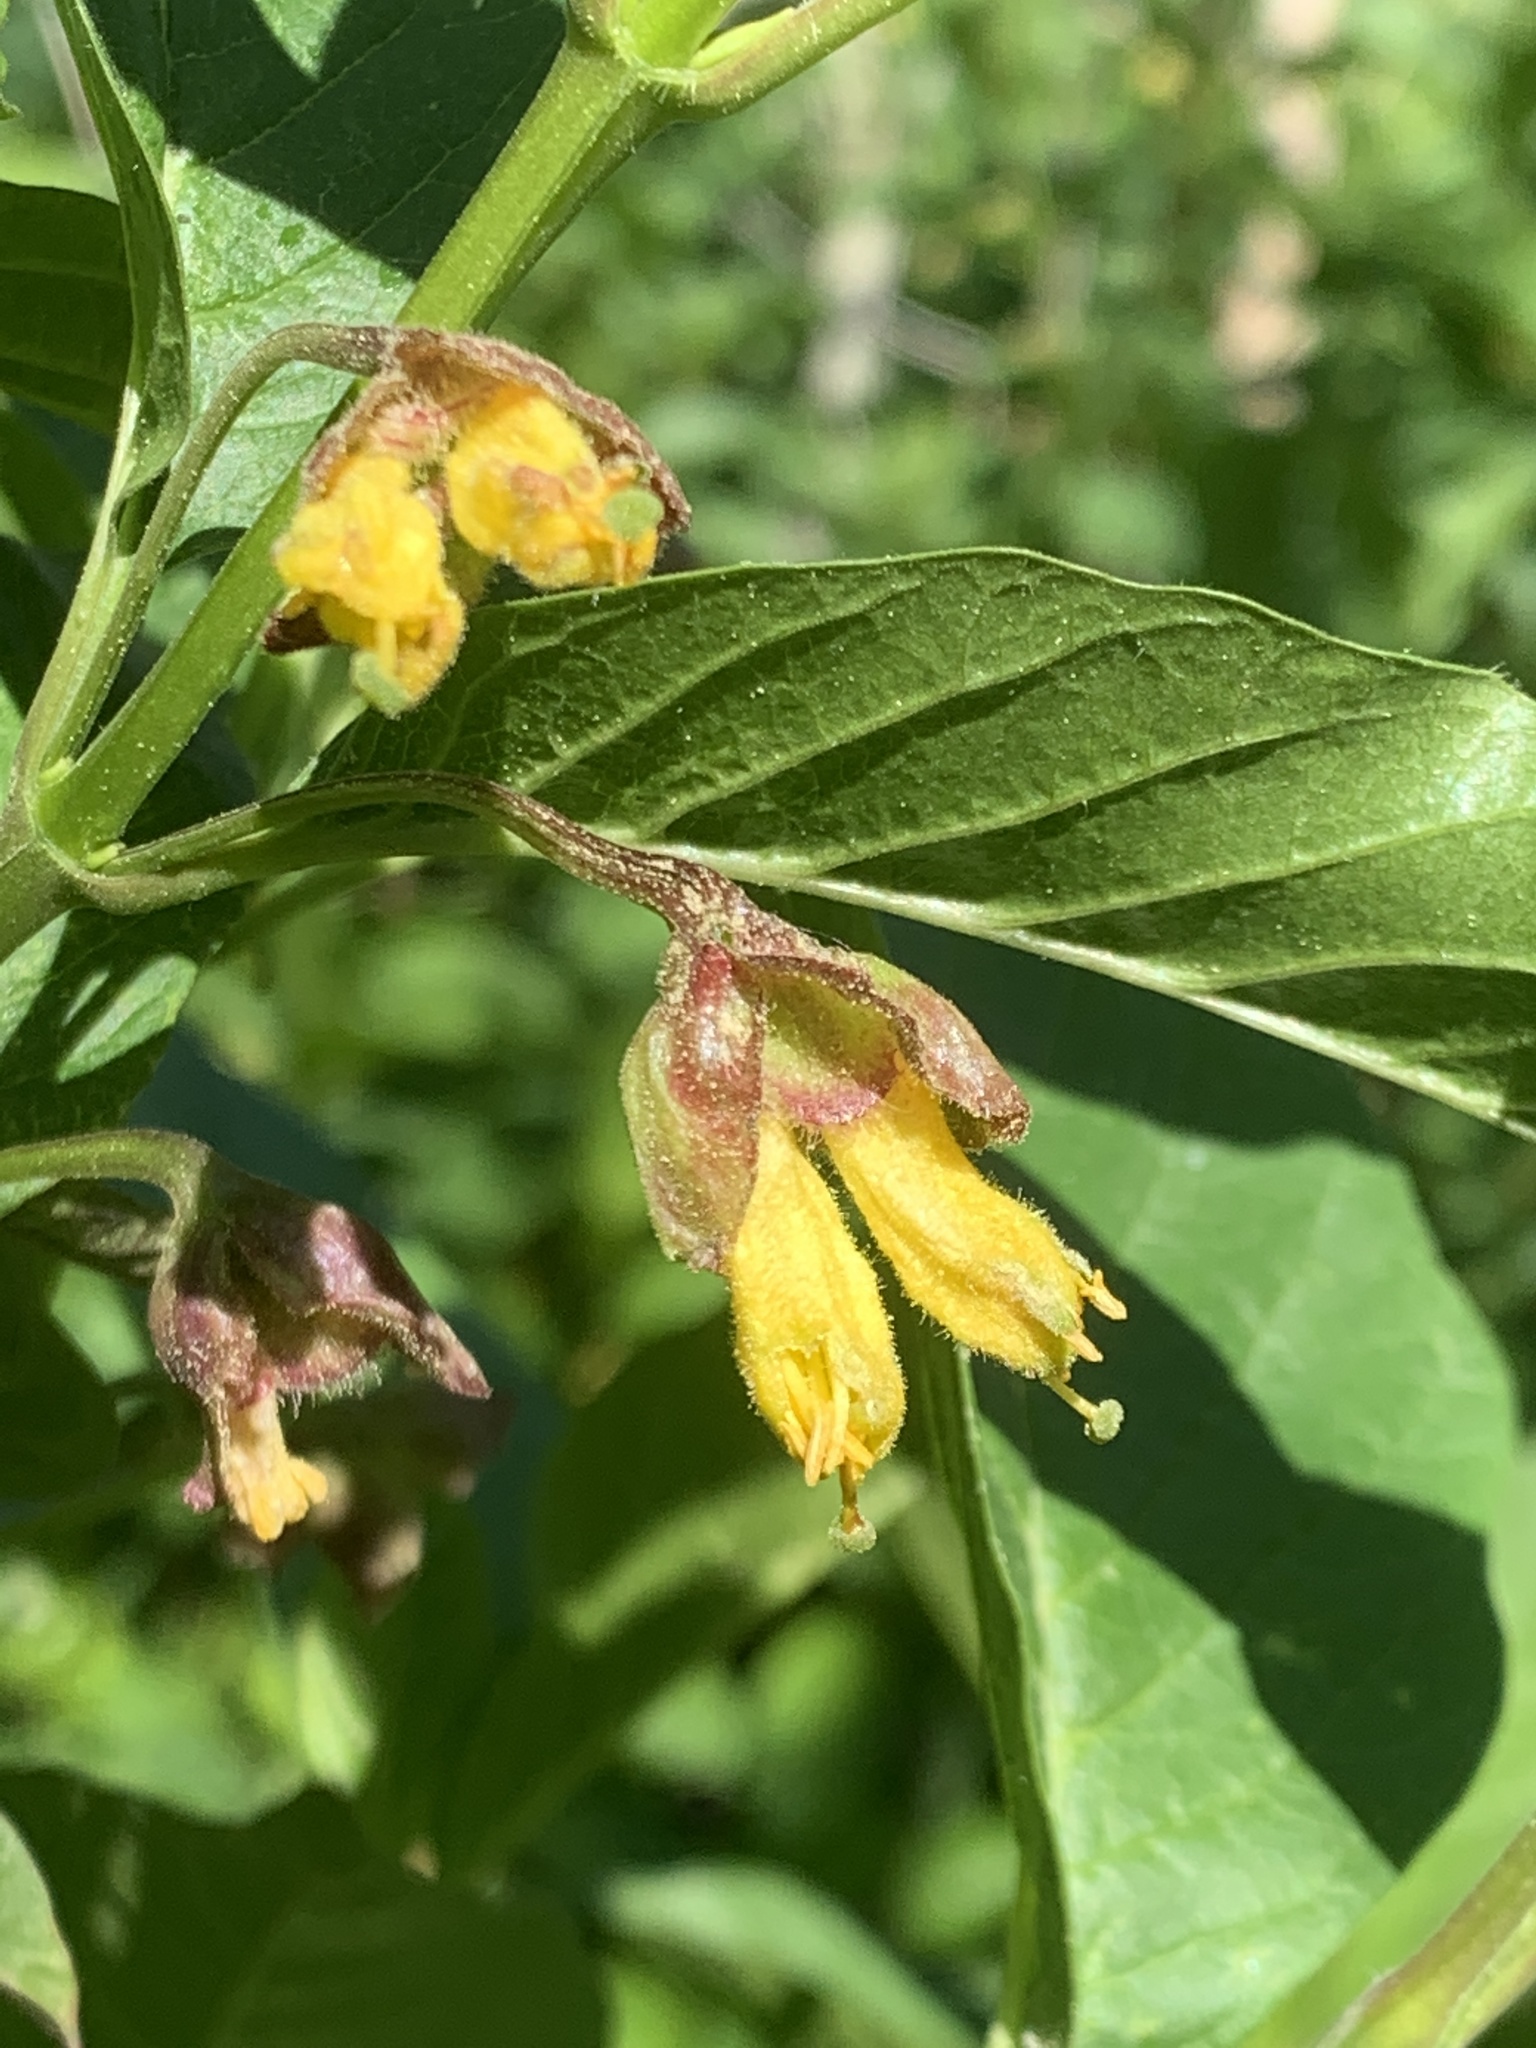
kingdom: Plantae
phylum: Tracheophyta
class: Magnoliopsida
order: Dipsacales
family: Caprifoliaceae
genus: Lonicera
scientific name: Lonicera involucrata
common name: Californian honeysuckle
